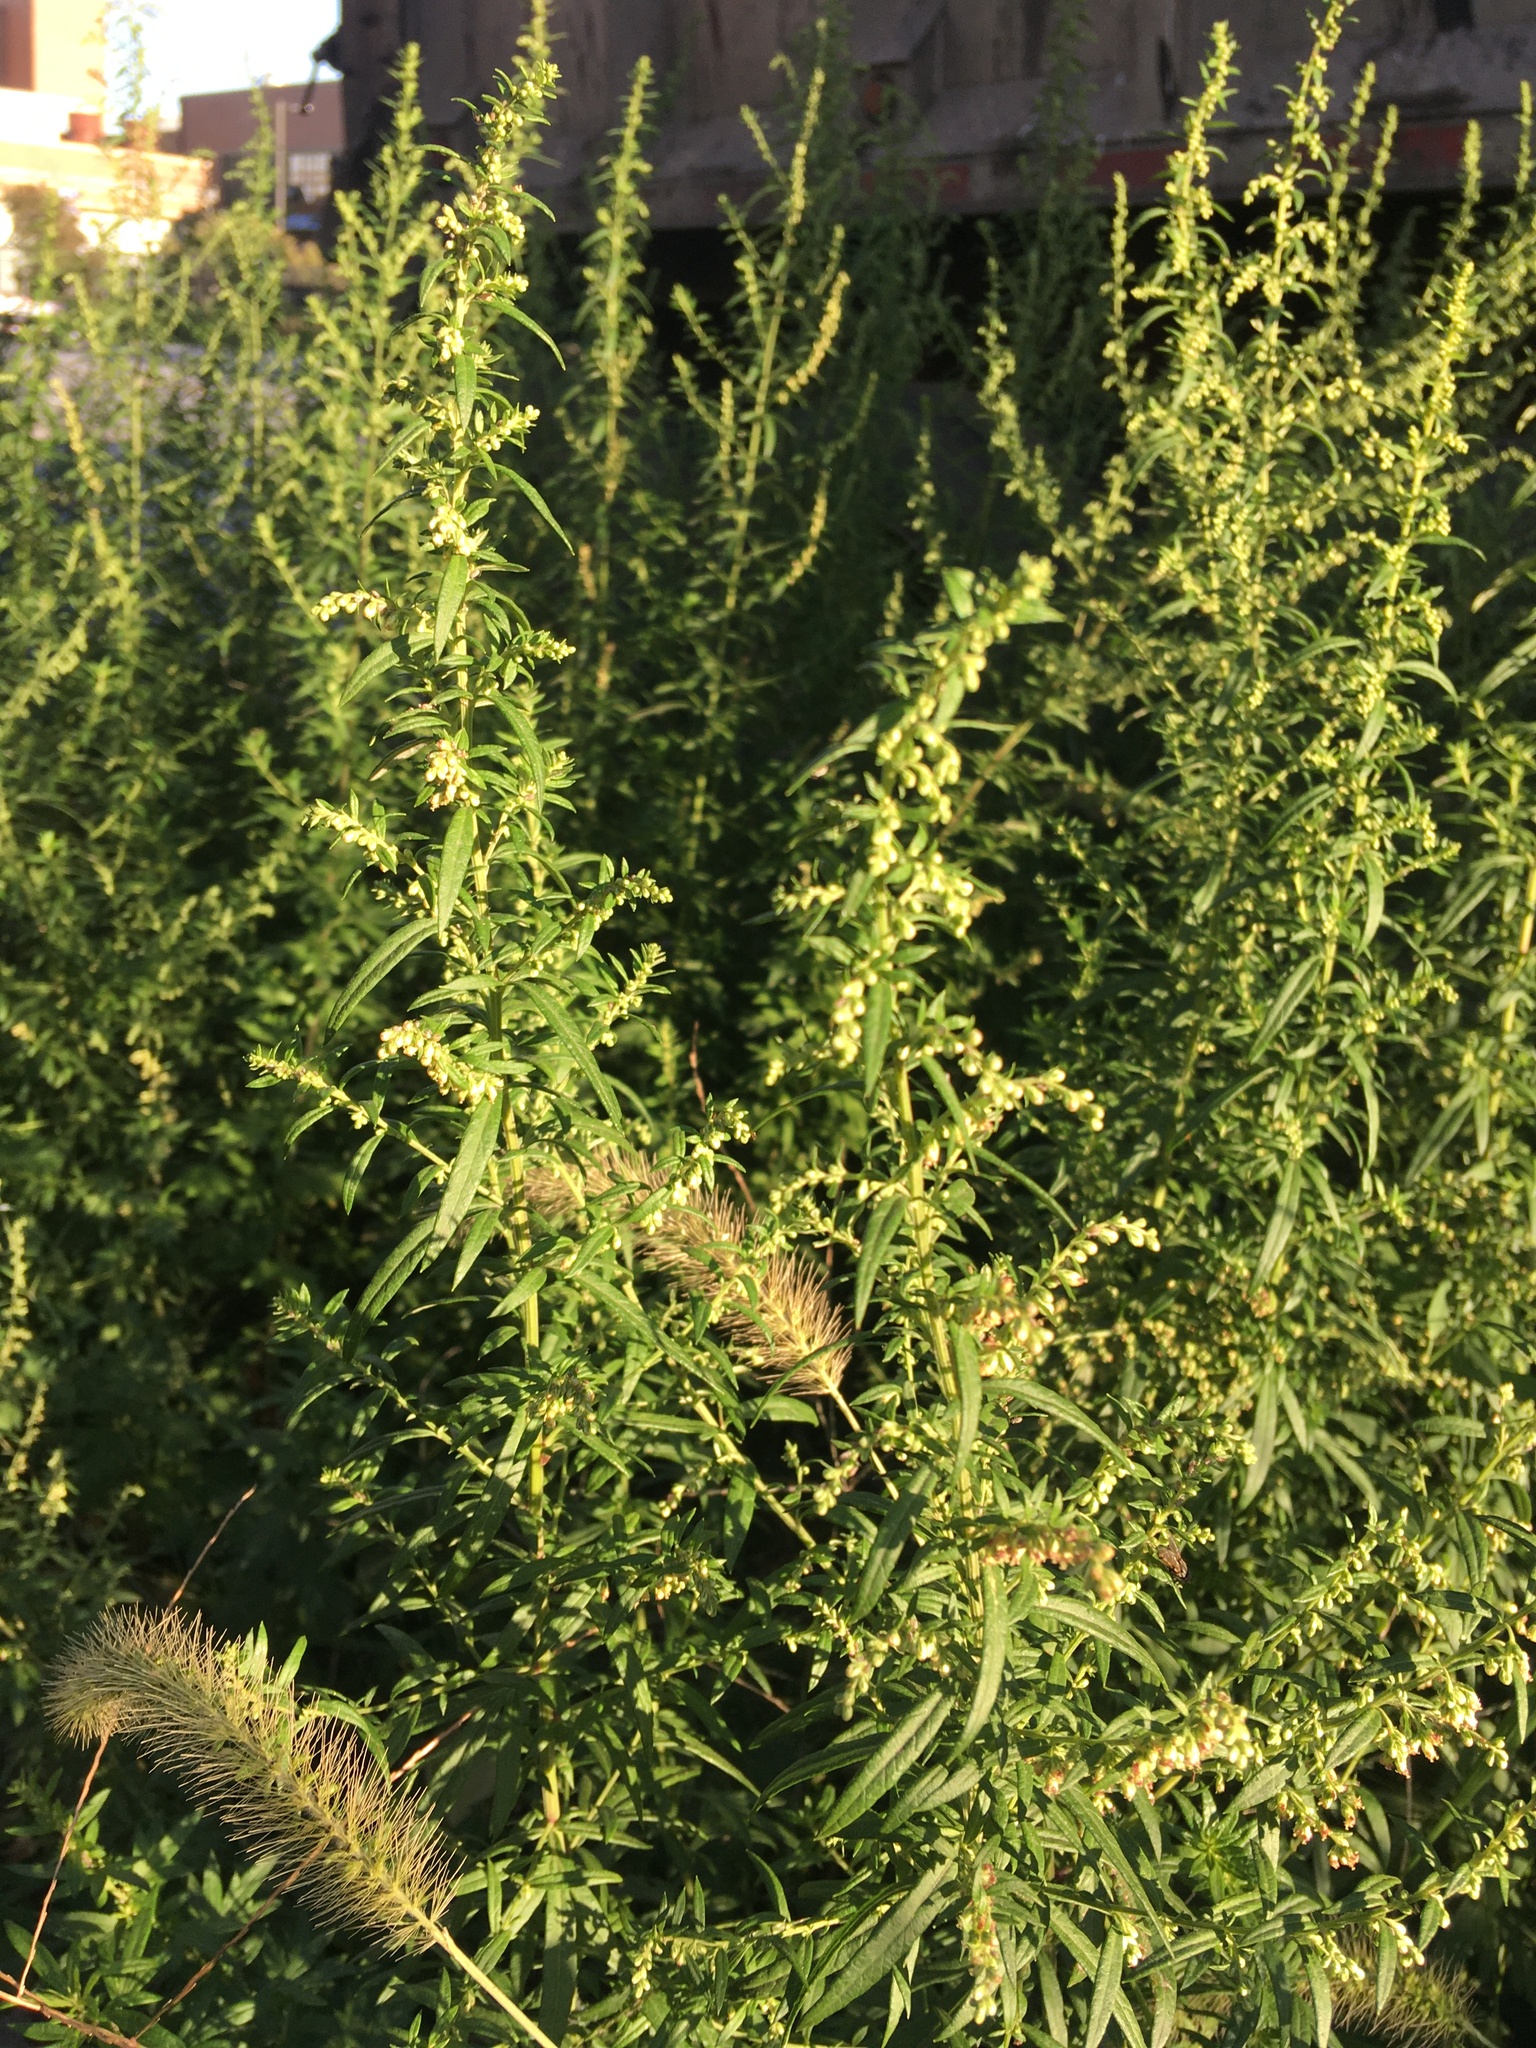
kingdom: Plantae
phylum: Tracheophyta
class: Magnoliopsida
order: Asterales
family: Asteraceae
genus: Artemisia
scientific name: Artemisia vulgaris
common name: Mugwort
